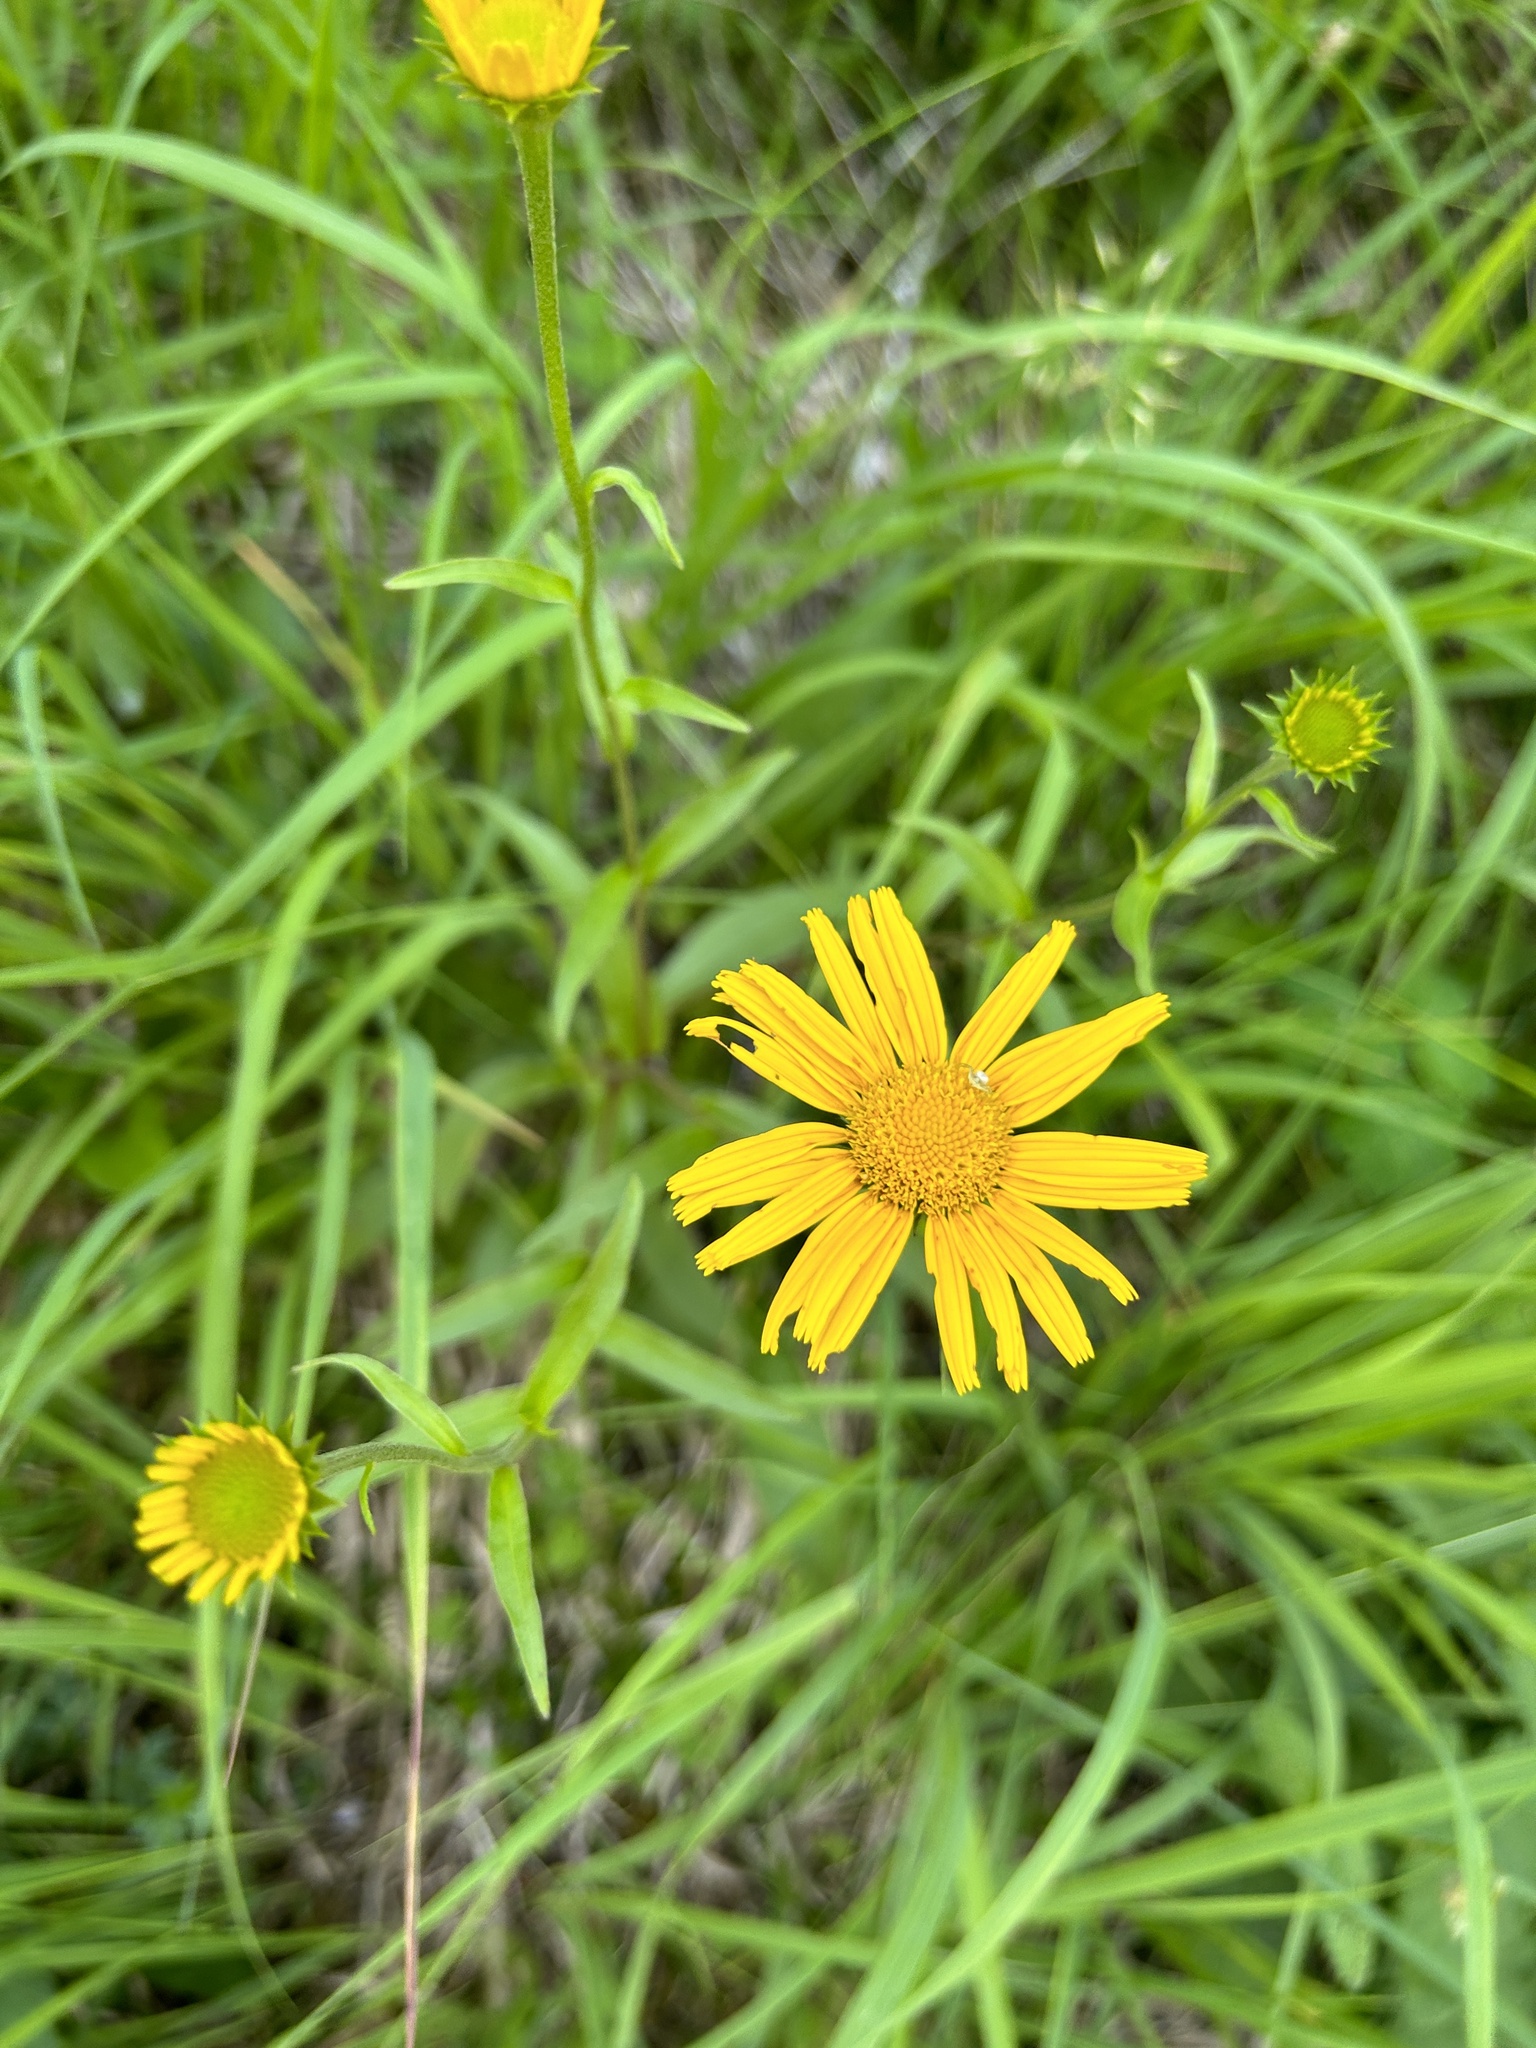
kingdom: Plantae
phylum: Tracheophyta
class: Magnoliopsida
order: Asterales
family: Asteraceae
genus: Buphthalmum
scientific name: Buphthalmum salicifolium
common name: Willow-leaved yellow-oxeye
